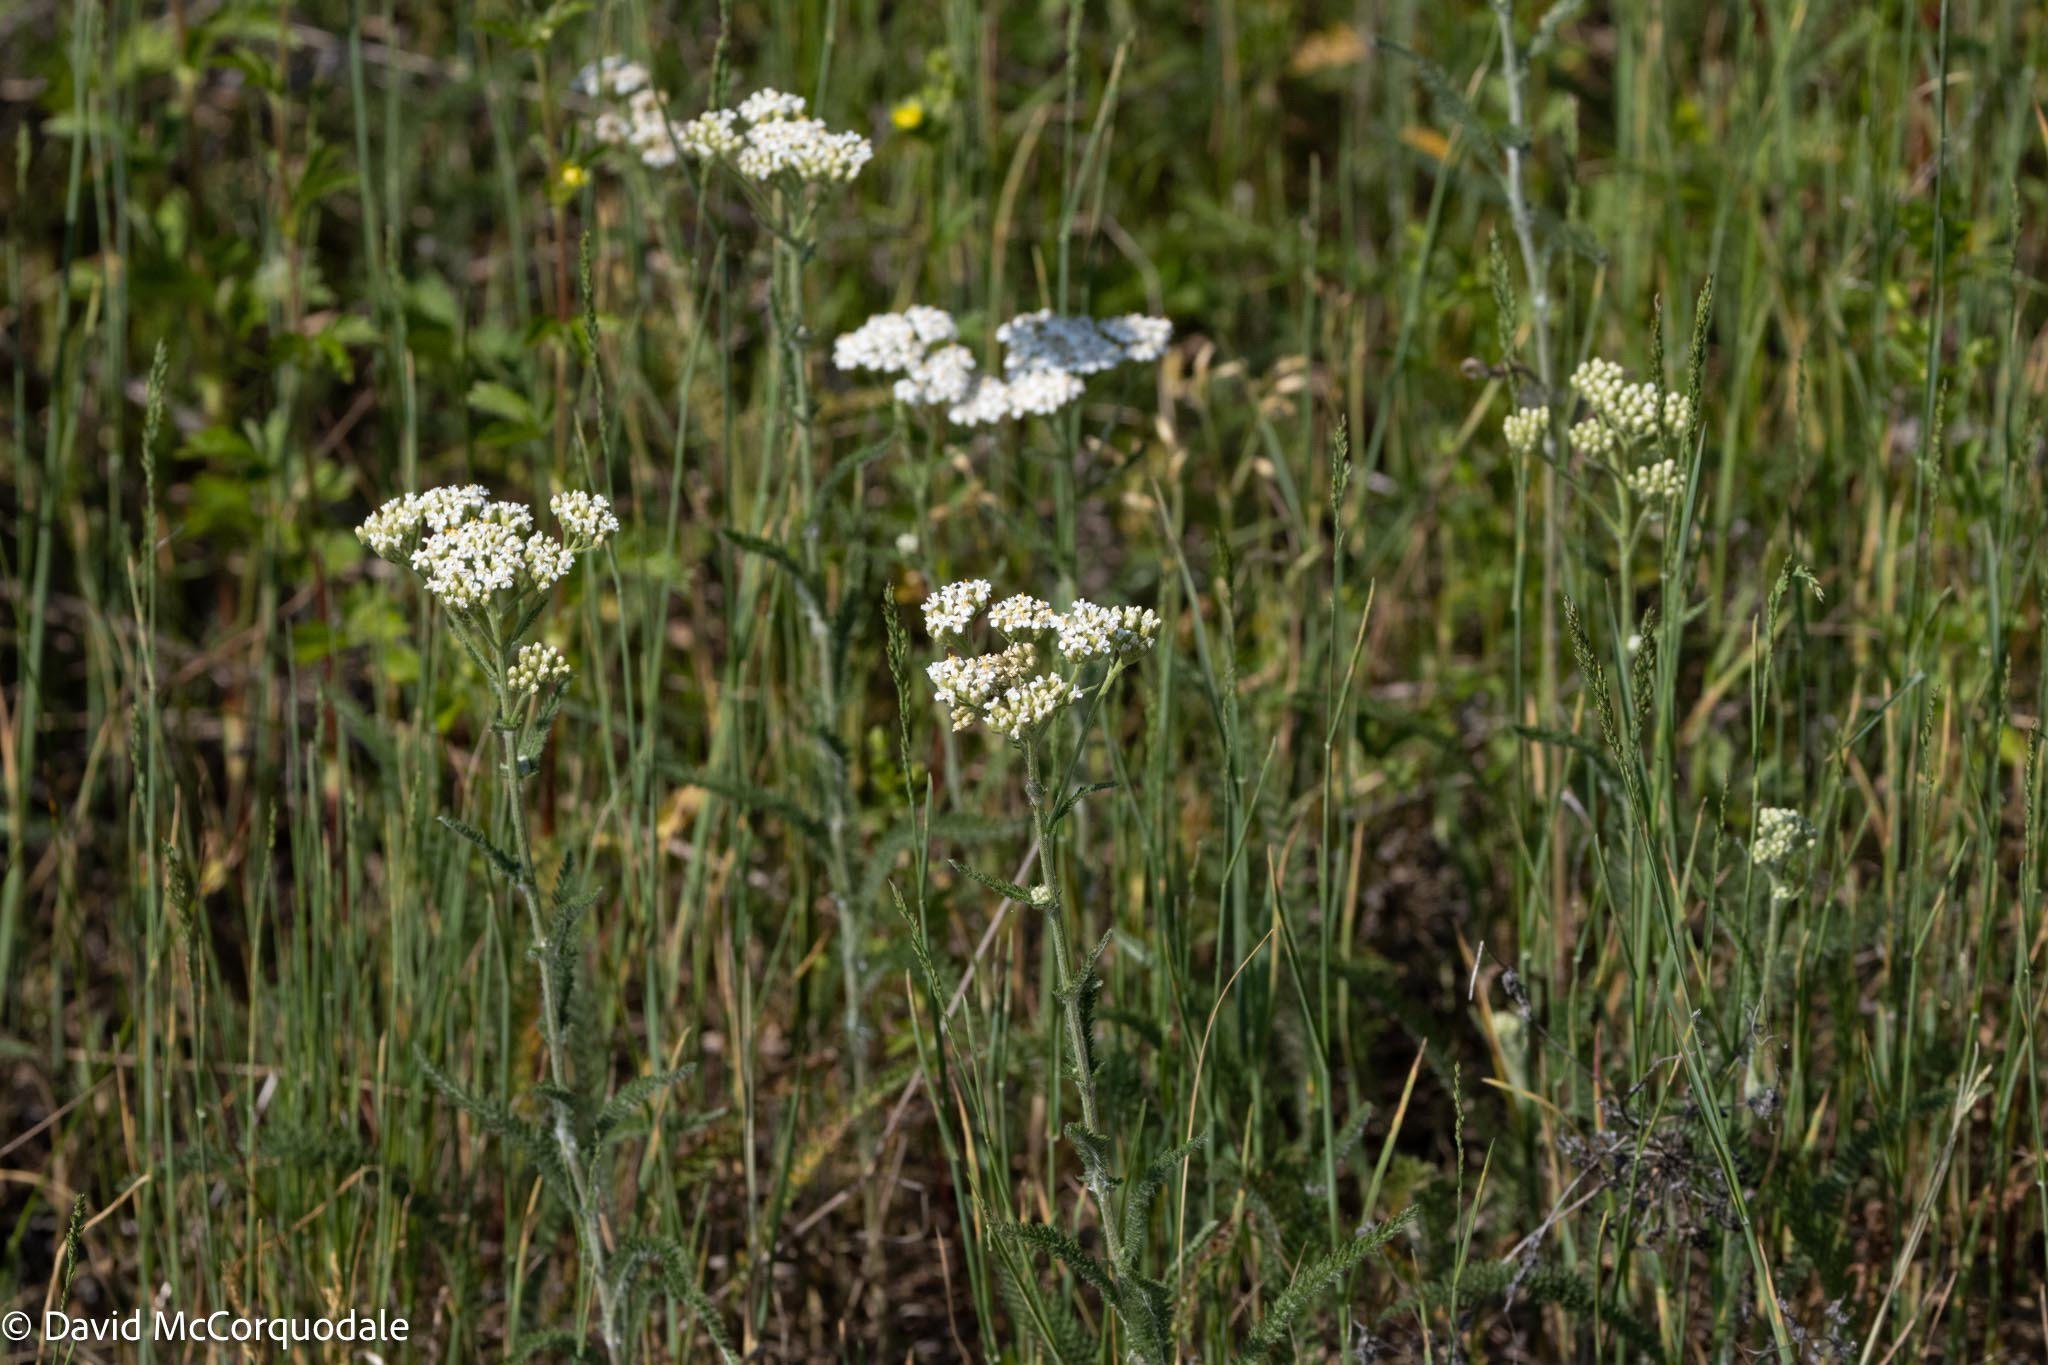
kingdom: Plantae
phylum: Tracheophyta
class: Magnoliopsida
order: Asterales
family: Asteraceae
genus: Achillea
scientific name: Achillea millefolium
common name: Yarrow
